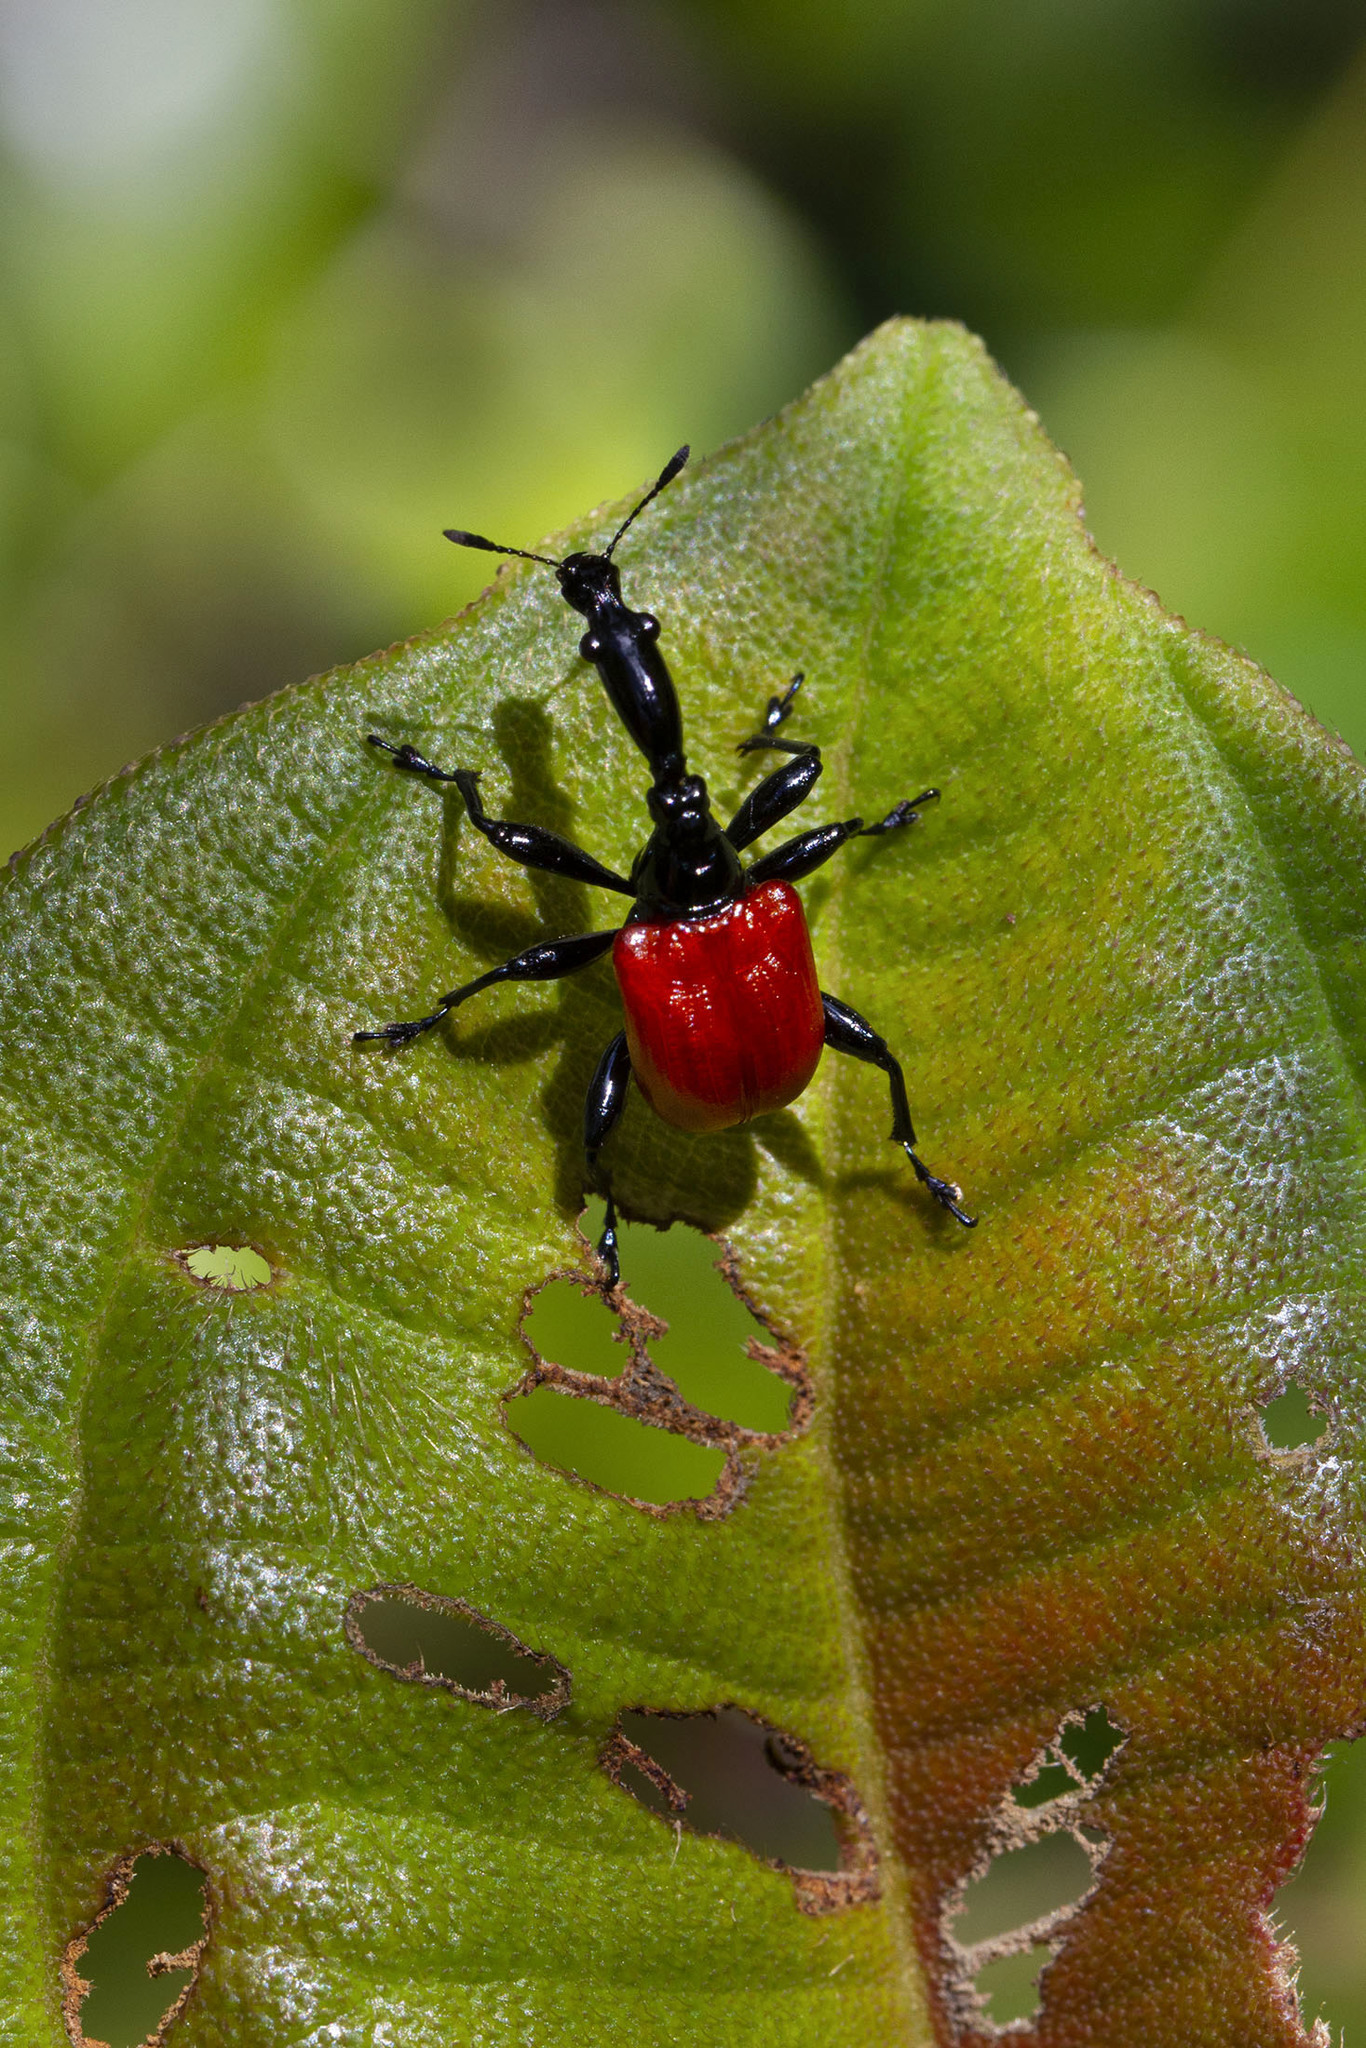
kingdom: Animalia
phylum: Arthropoda
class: Insecta
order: Coleoptera
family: Attelabidae
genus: Trachelophorus
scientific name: Trachelophorus giraffa
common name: Giraffe weevil
